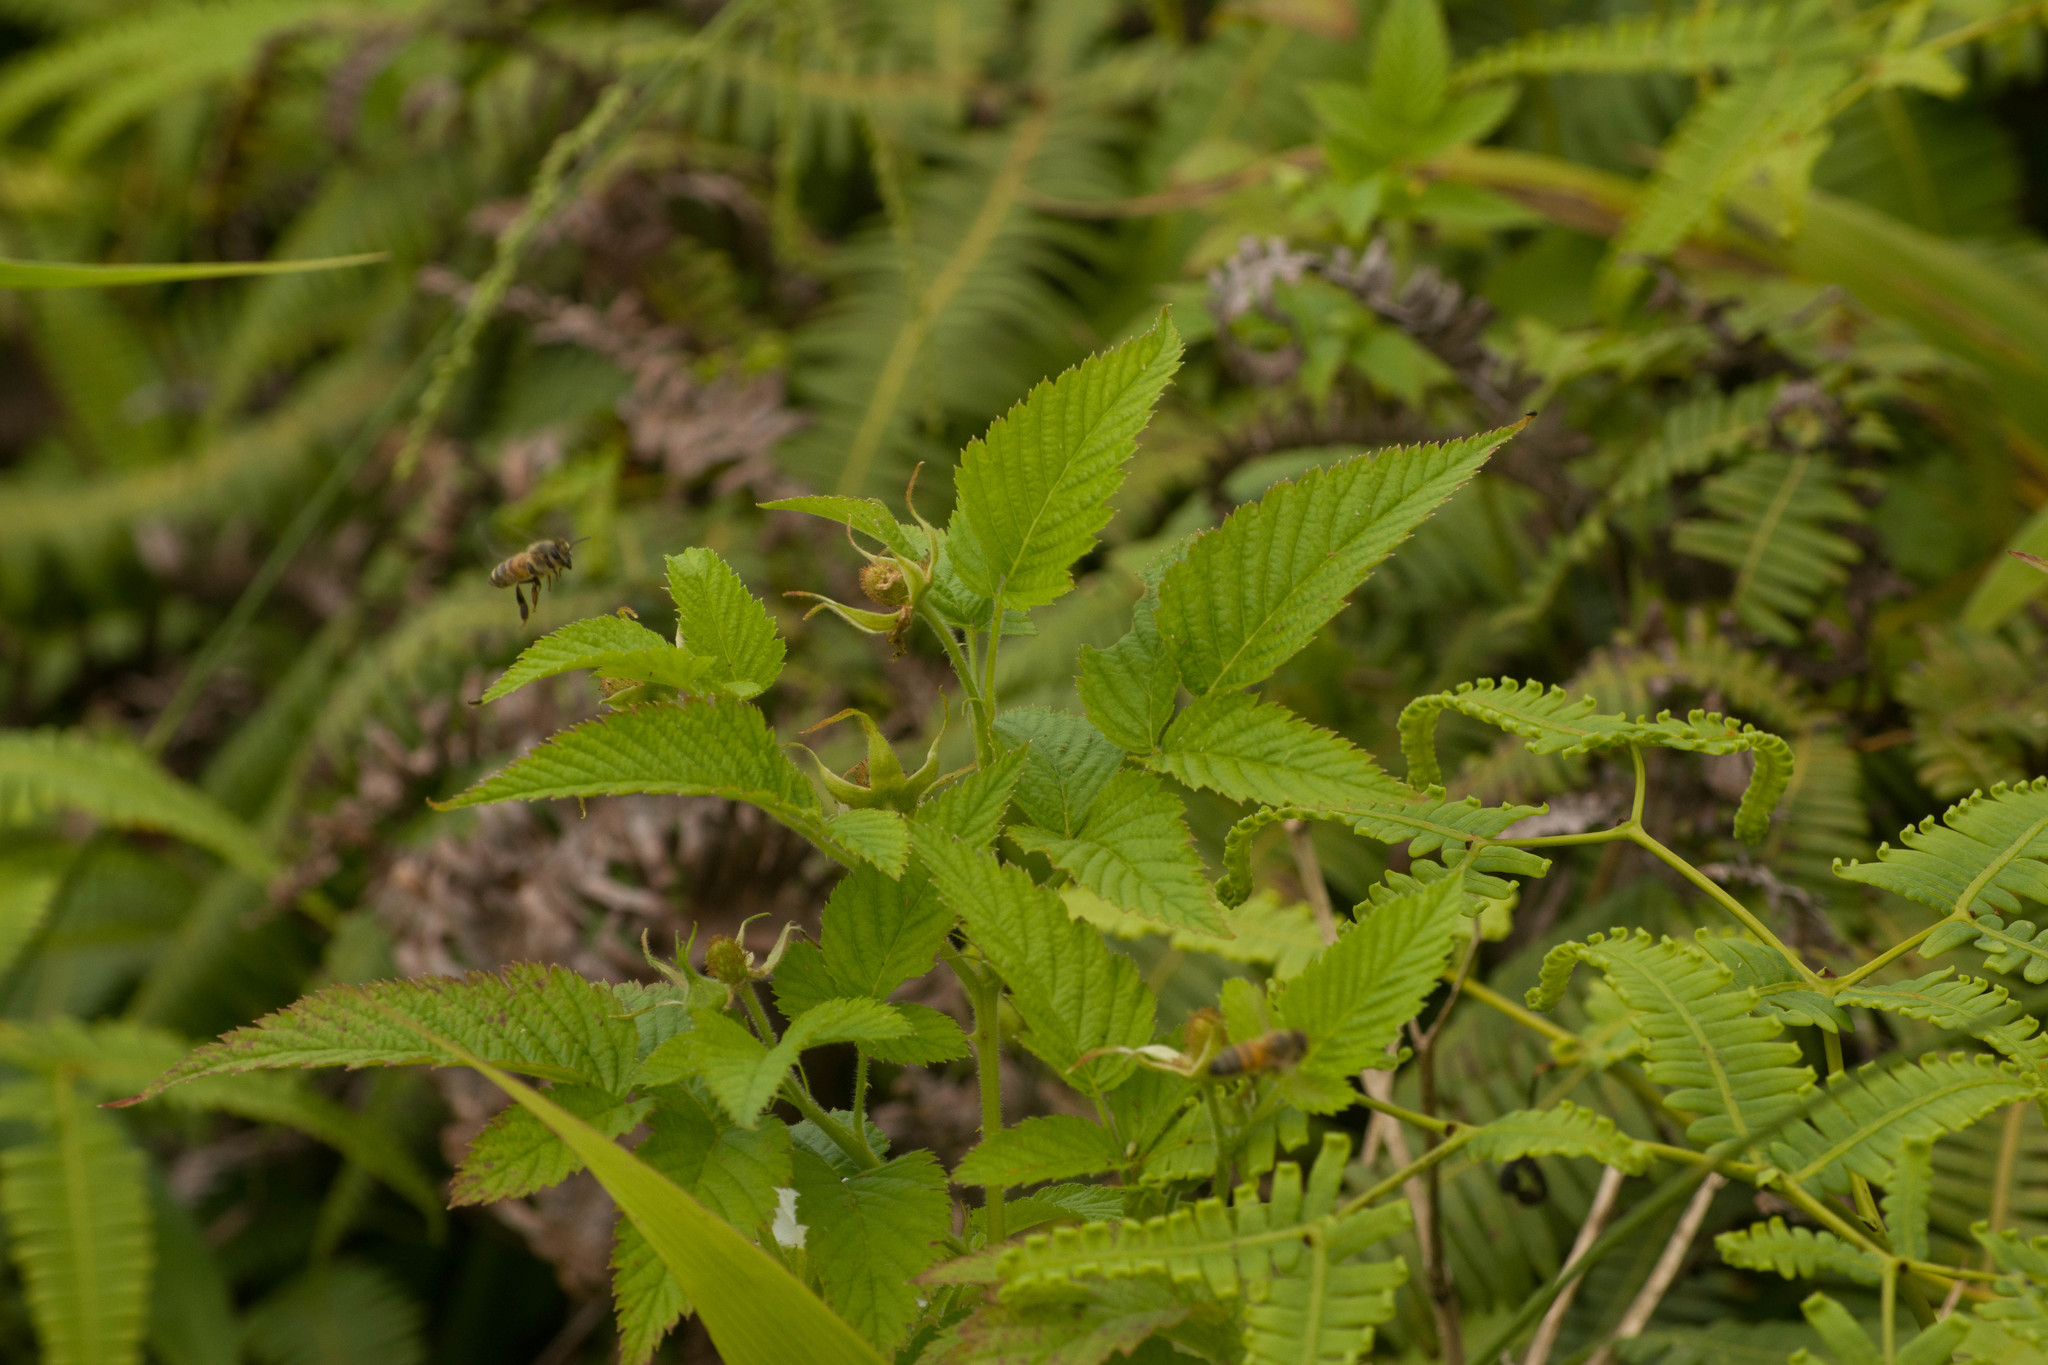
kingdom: Plantae
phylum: Tracheophyta
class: Magnoliopsida
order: Rosales
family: Rosaceae
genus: Rubus
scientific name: Rubus rosifolius
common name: Roseleaf raspberry
